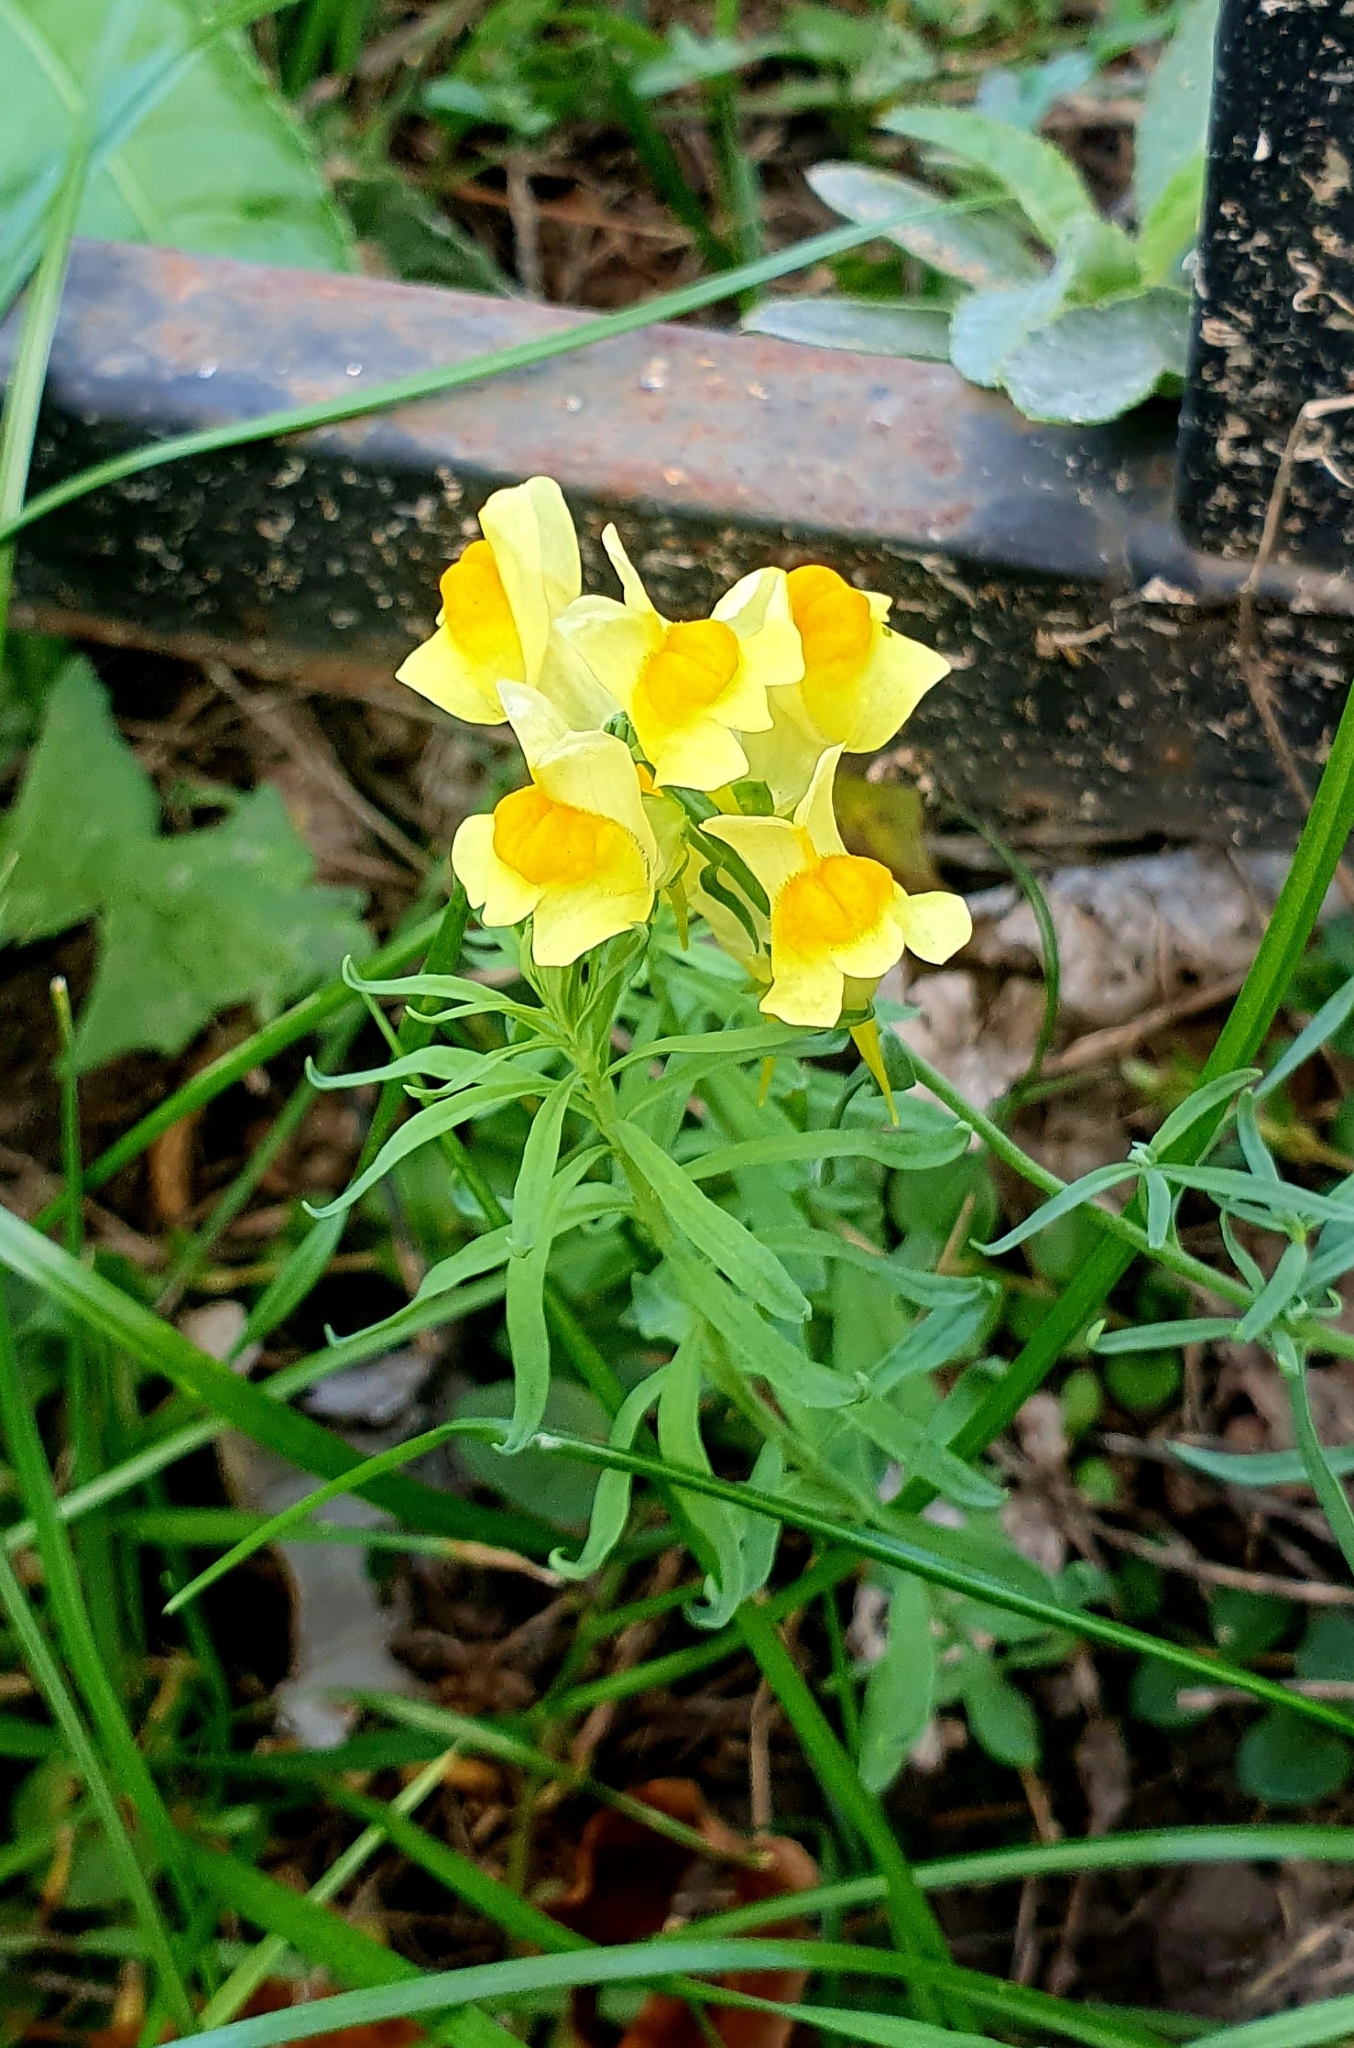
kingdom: Plantae
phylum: Tracheophyta
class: Magnoliopsida
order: Lamiales
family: Plantaginaceae
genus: Linaria
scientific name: Linaria vulgaris
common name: Butter and eggs
